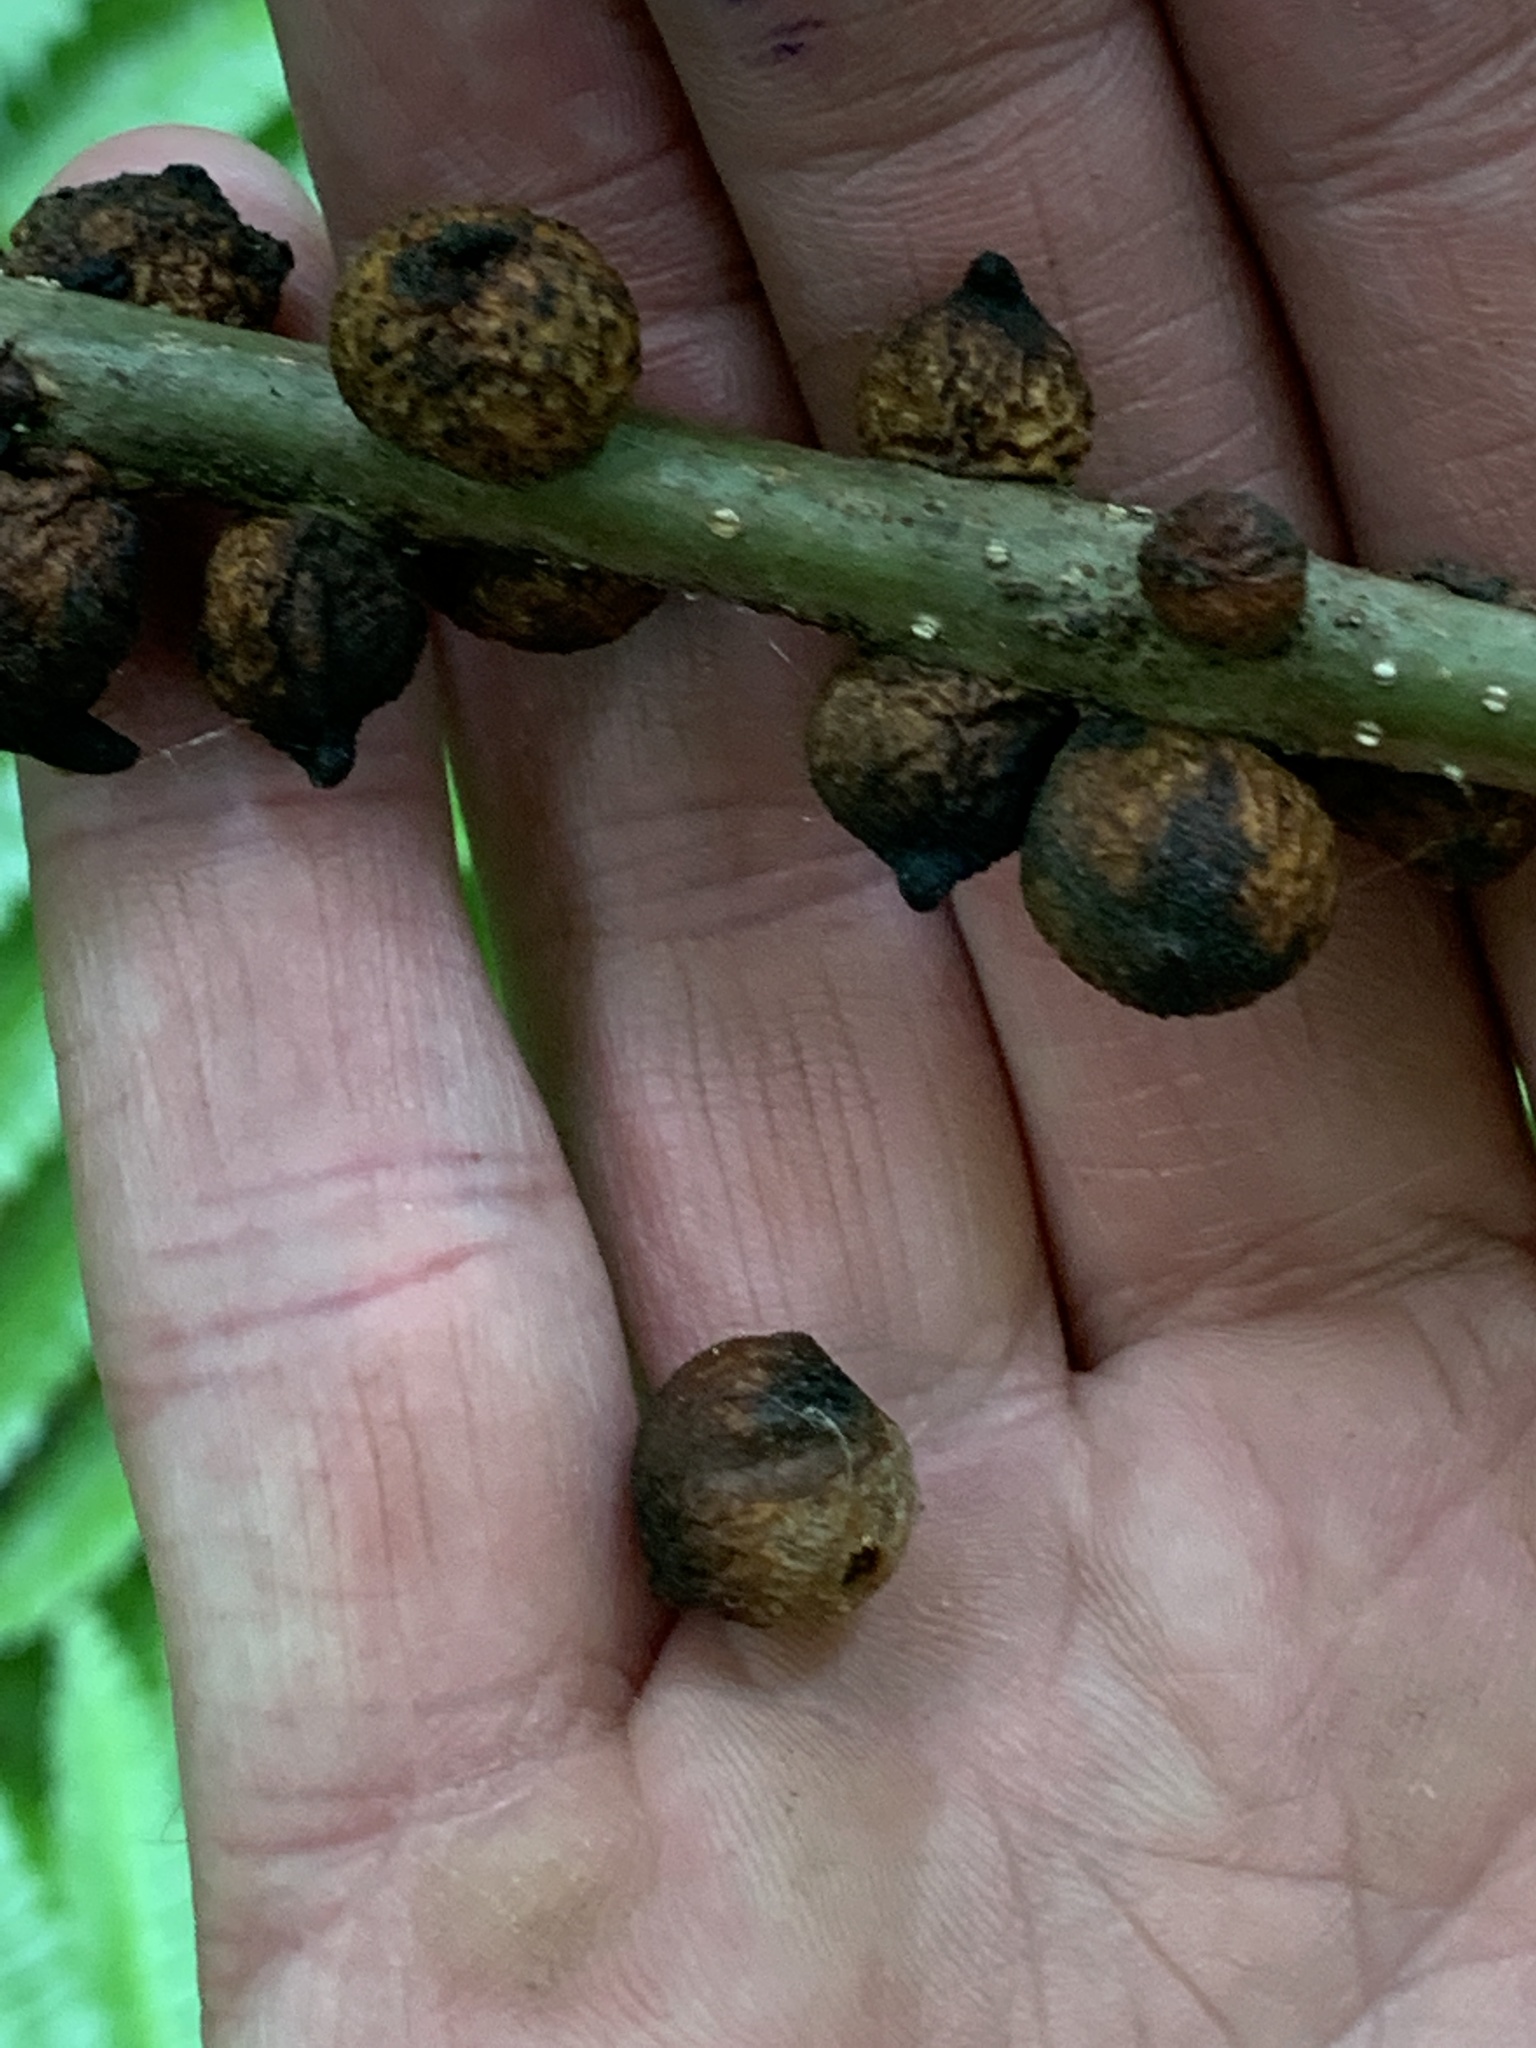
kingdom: Animalia
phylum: Arthropoda
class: Insecta
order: Hymenoptera
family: Cynipidae
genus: Disholcaspis
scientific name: Disholcaspis
